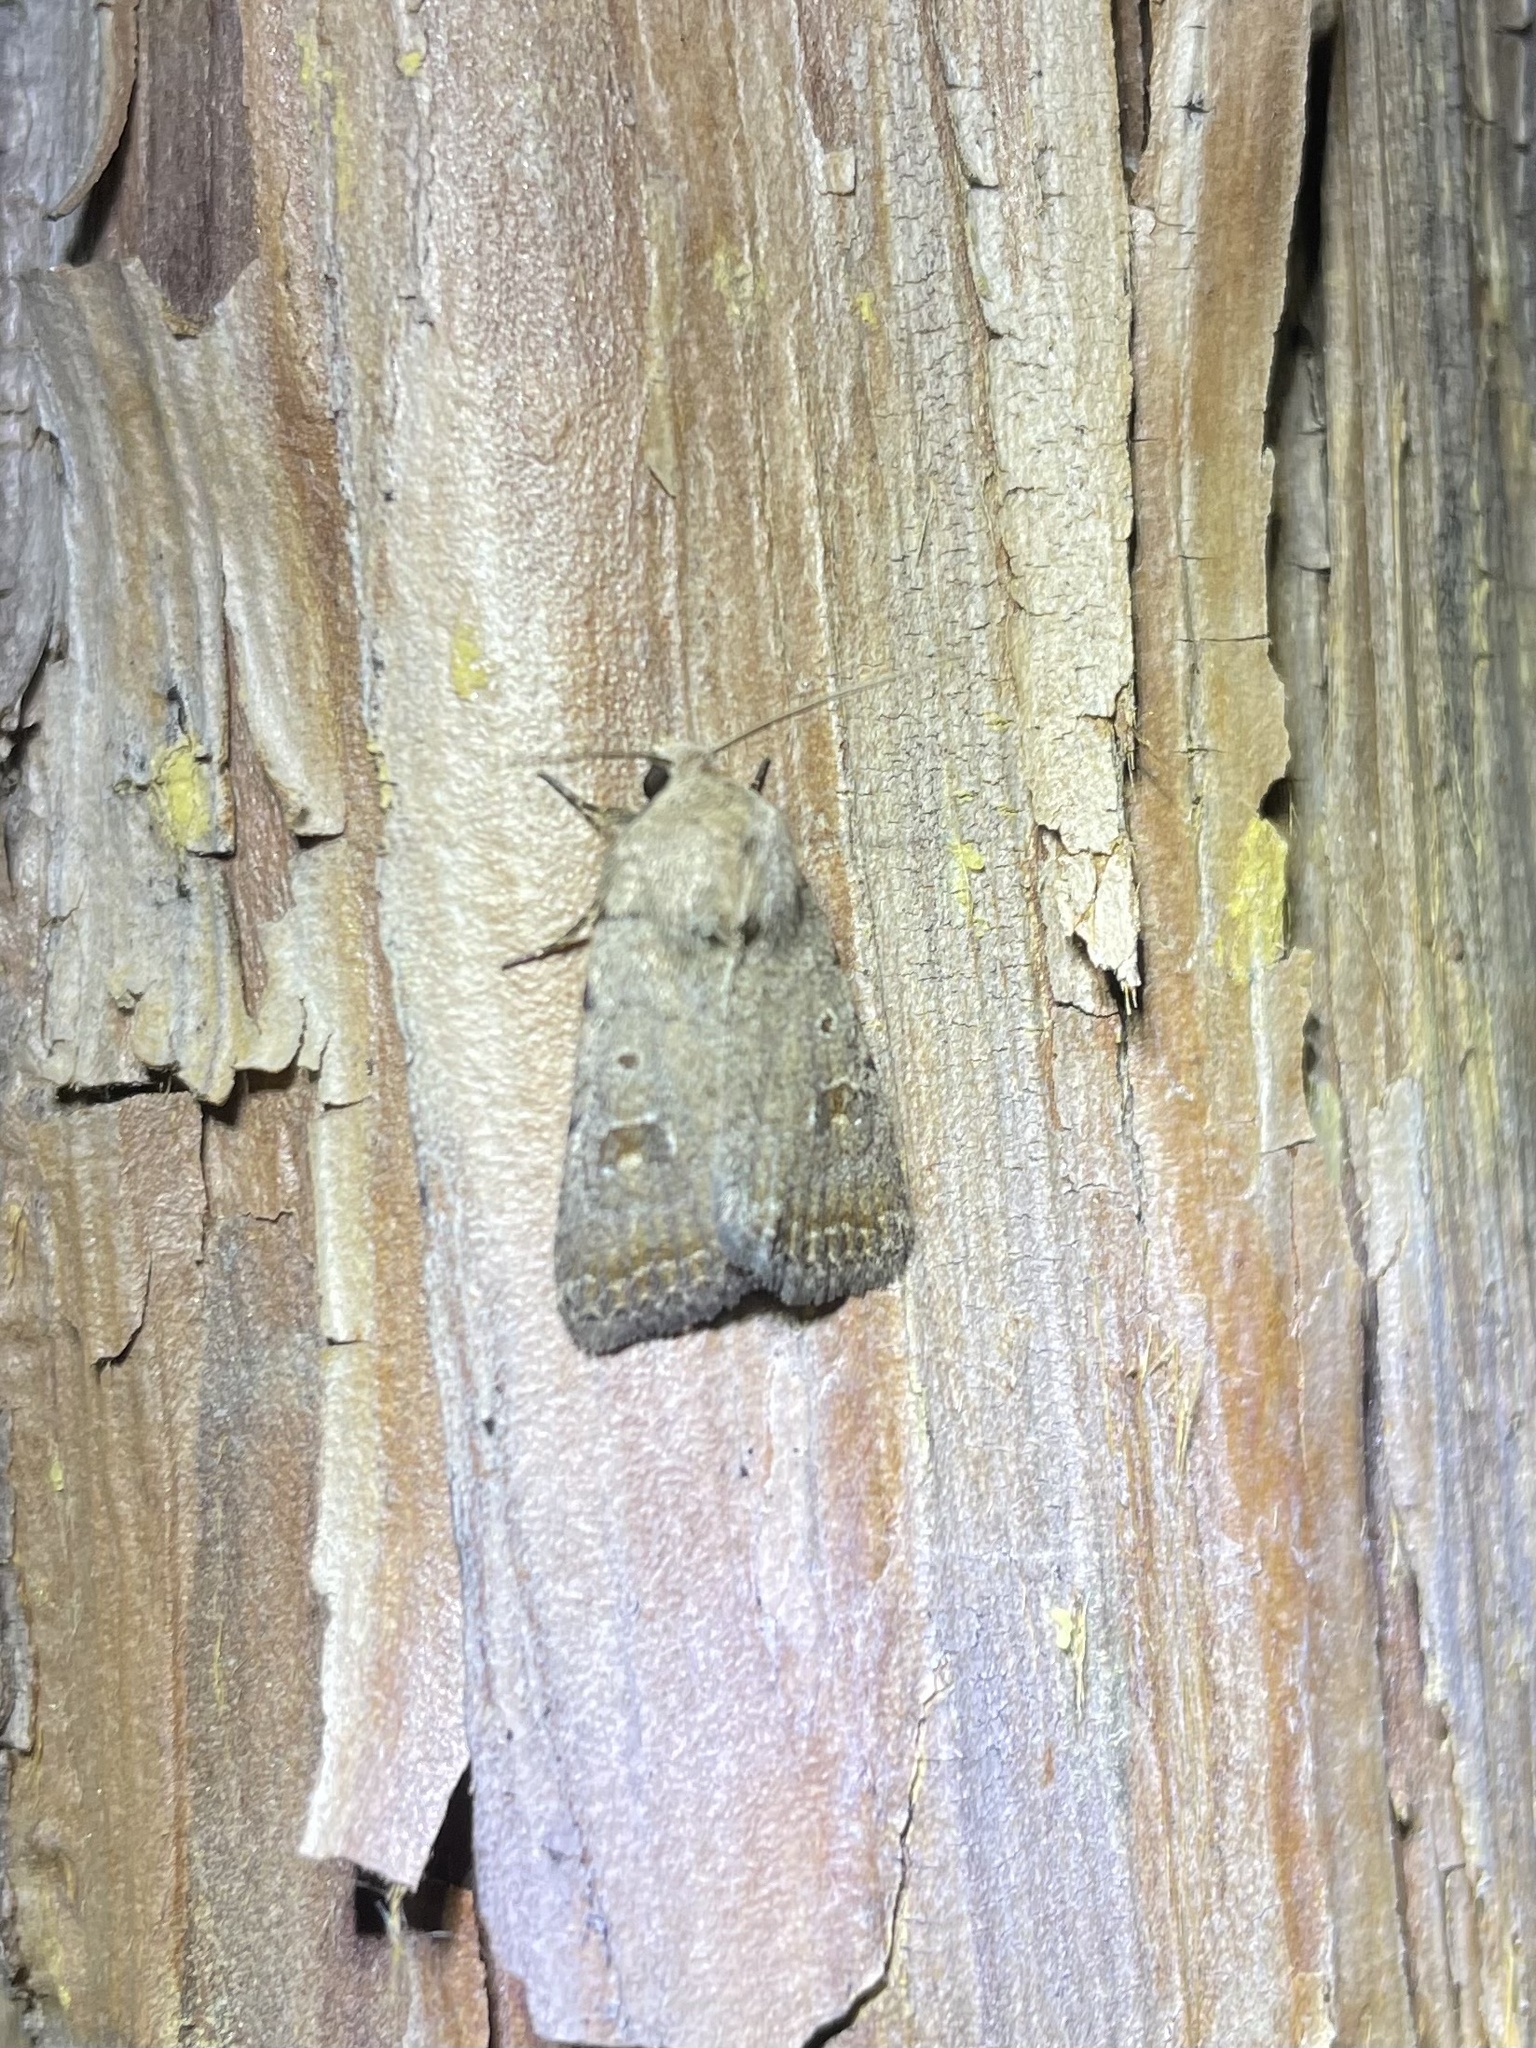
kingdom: Animalia
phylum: Arthropoda
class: Insecta
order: Lepidoptera
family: Noctuidae
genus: Caradrina
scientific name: Caradrina montana
